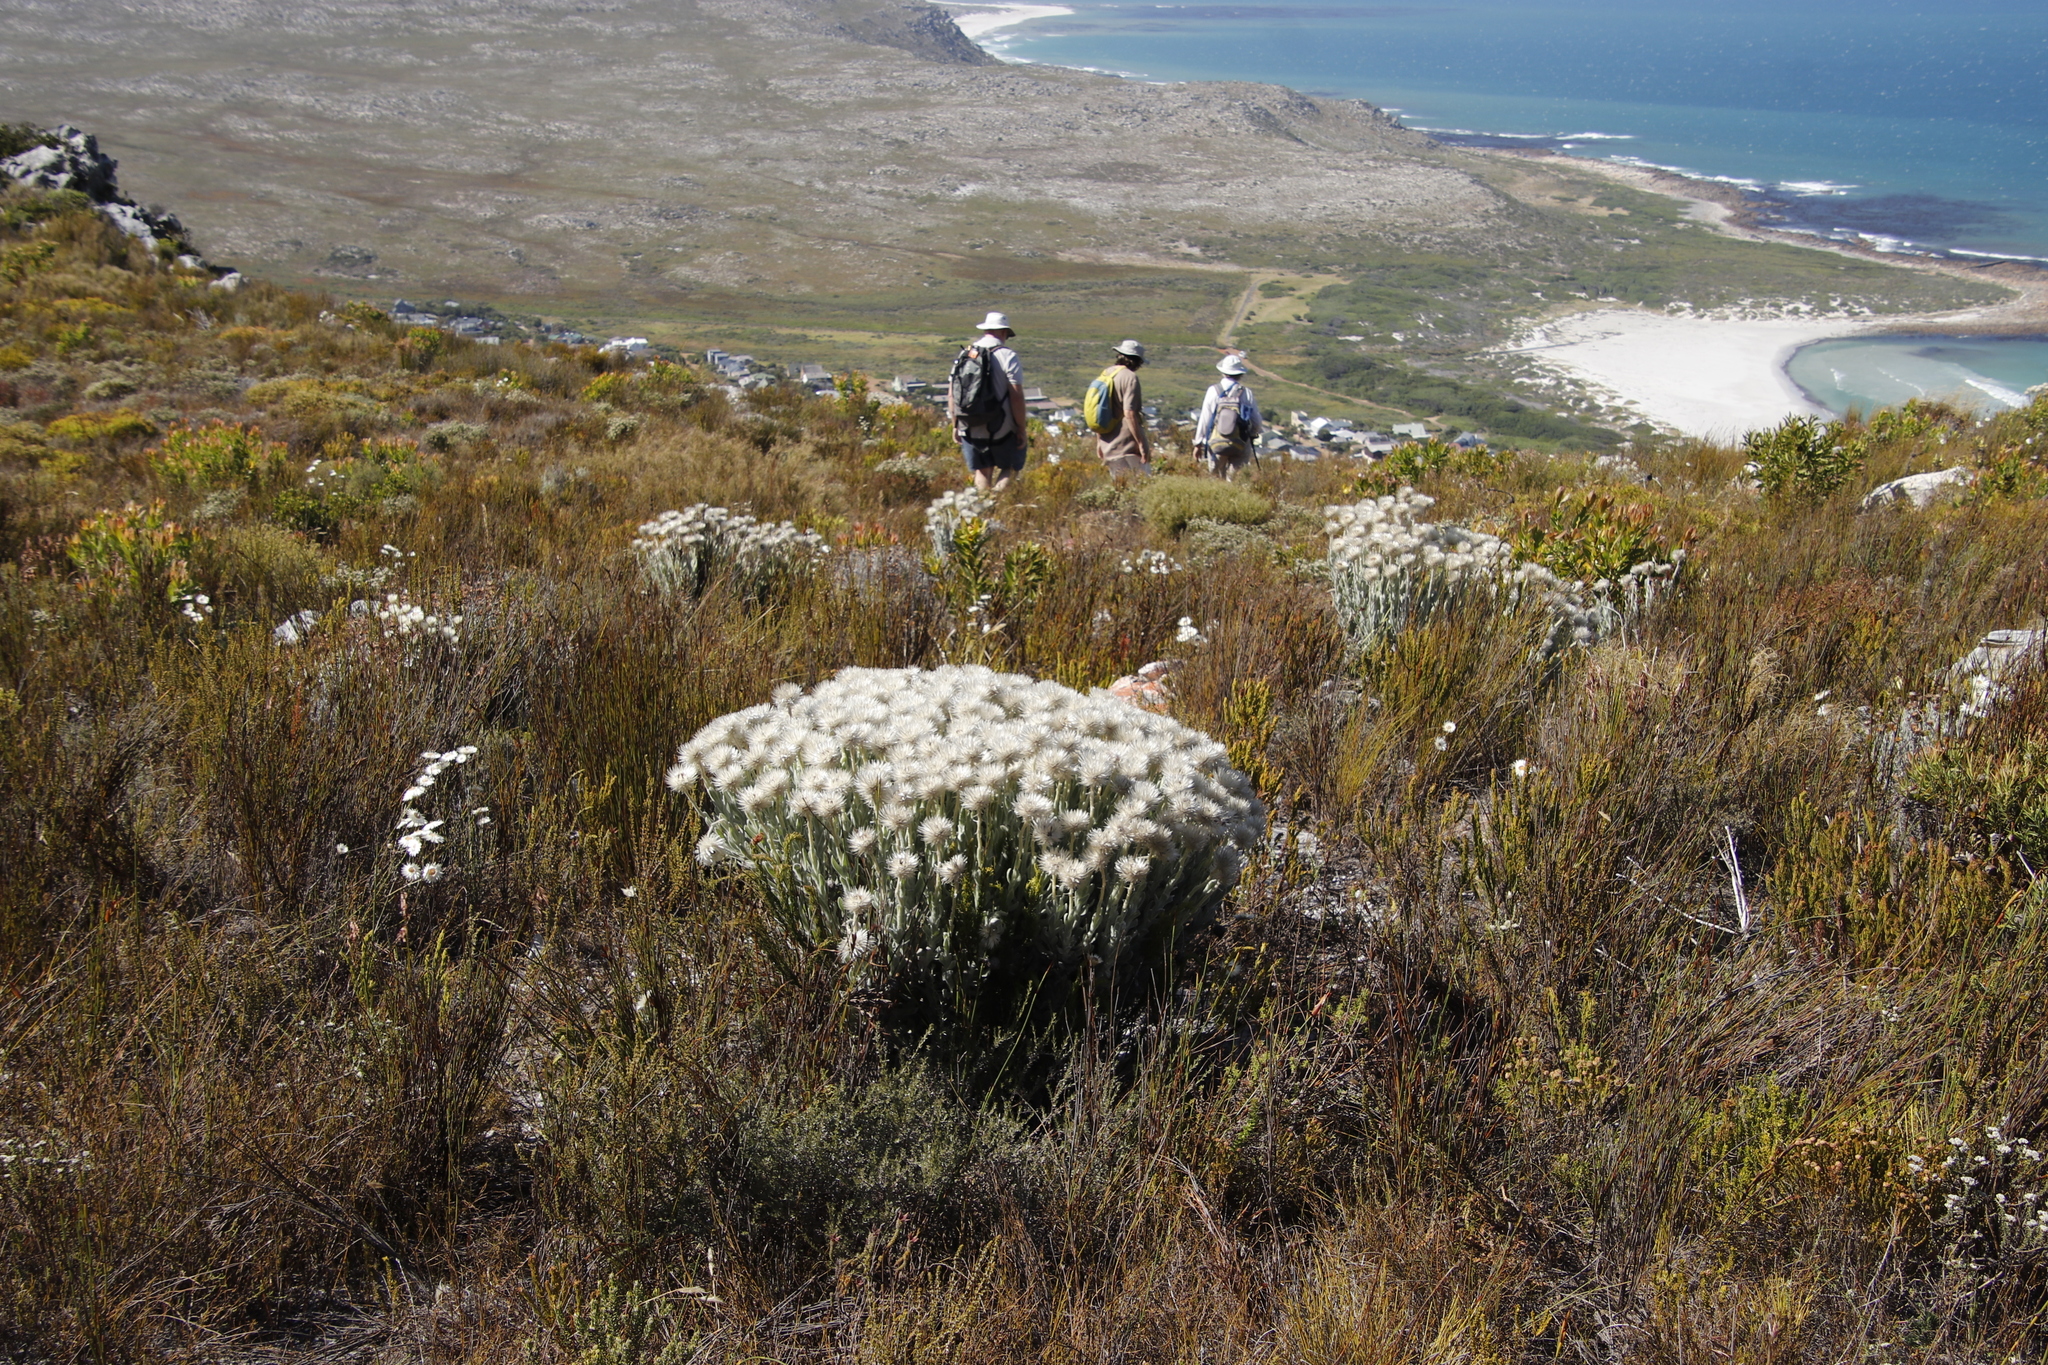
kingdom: Plantae
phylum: Tracheophyta
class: Magnoliopsida
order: Asterales
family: Asteraceae
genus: Syncarpha
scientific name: Syncarpha vestita
